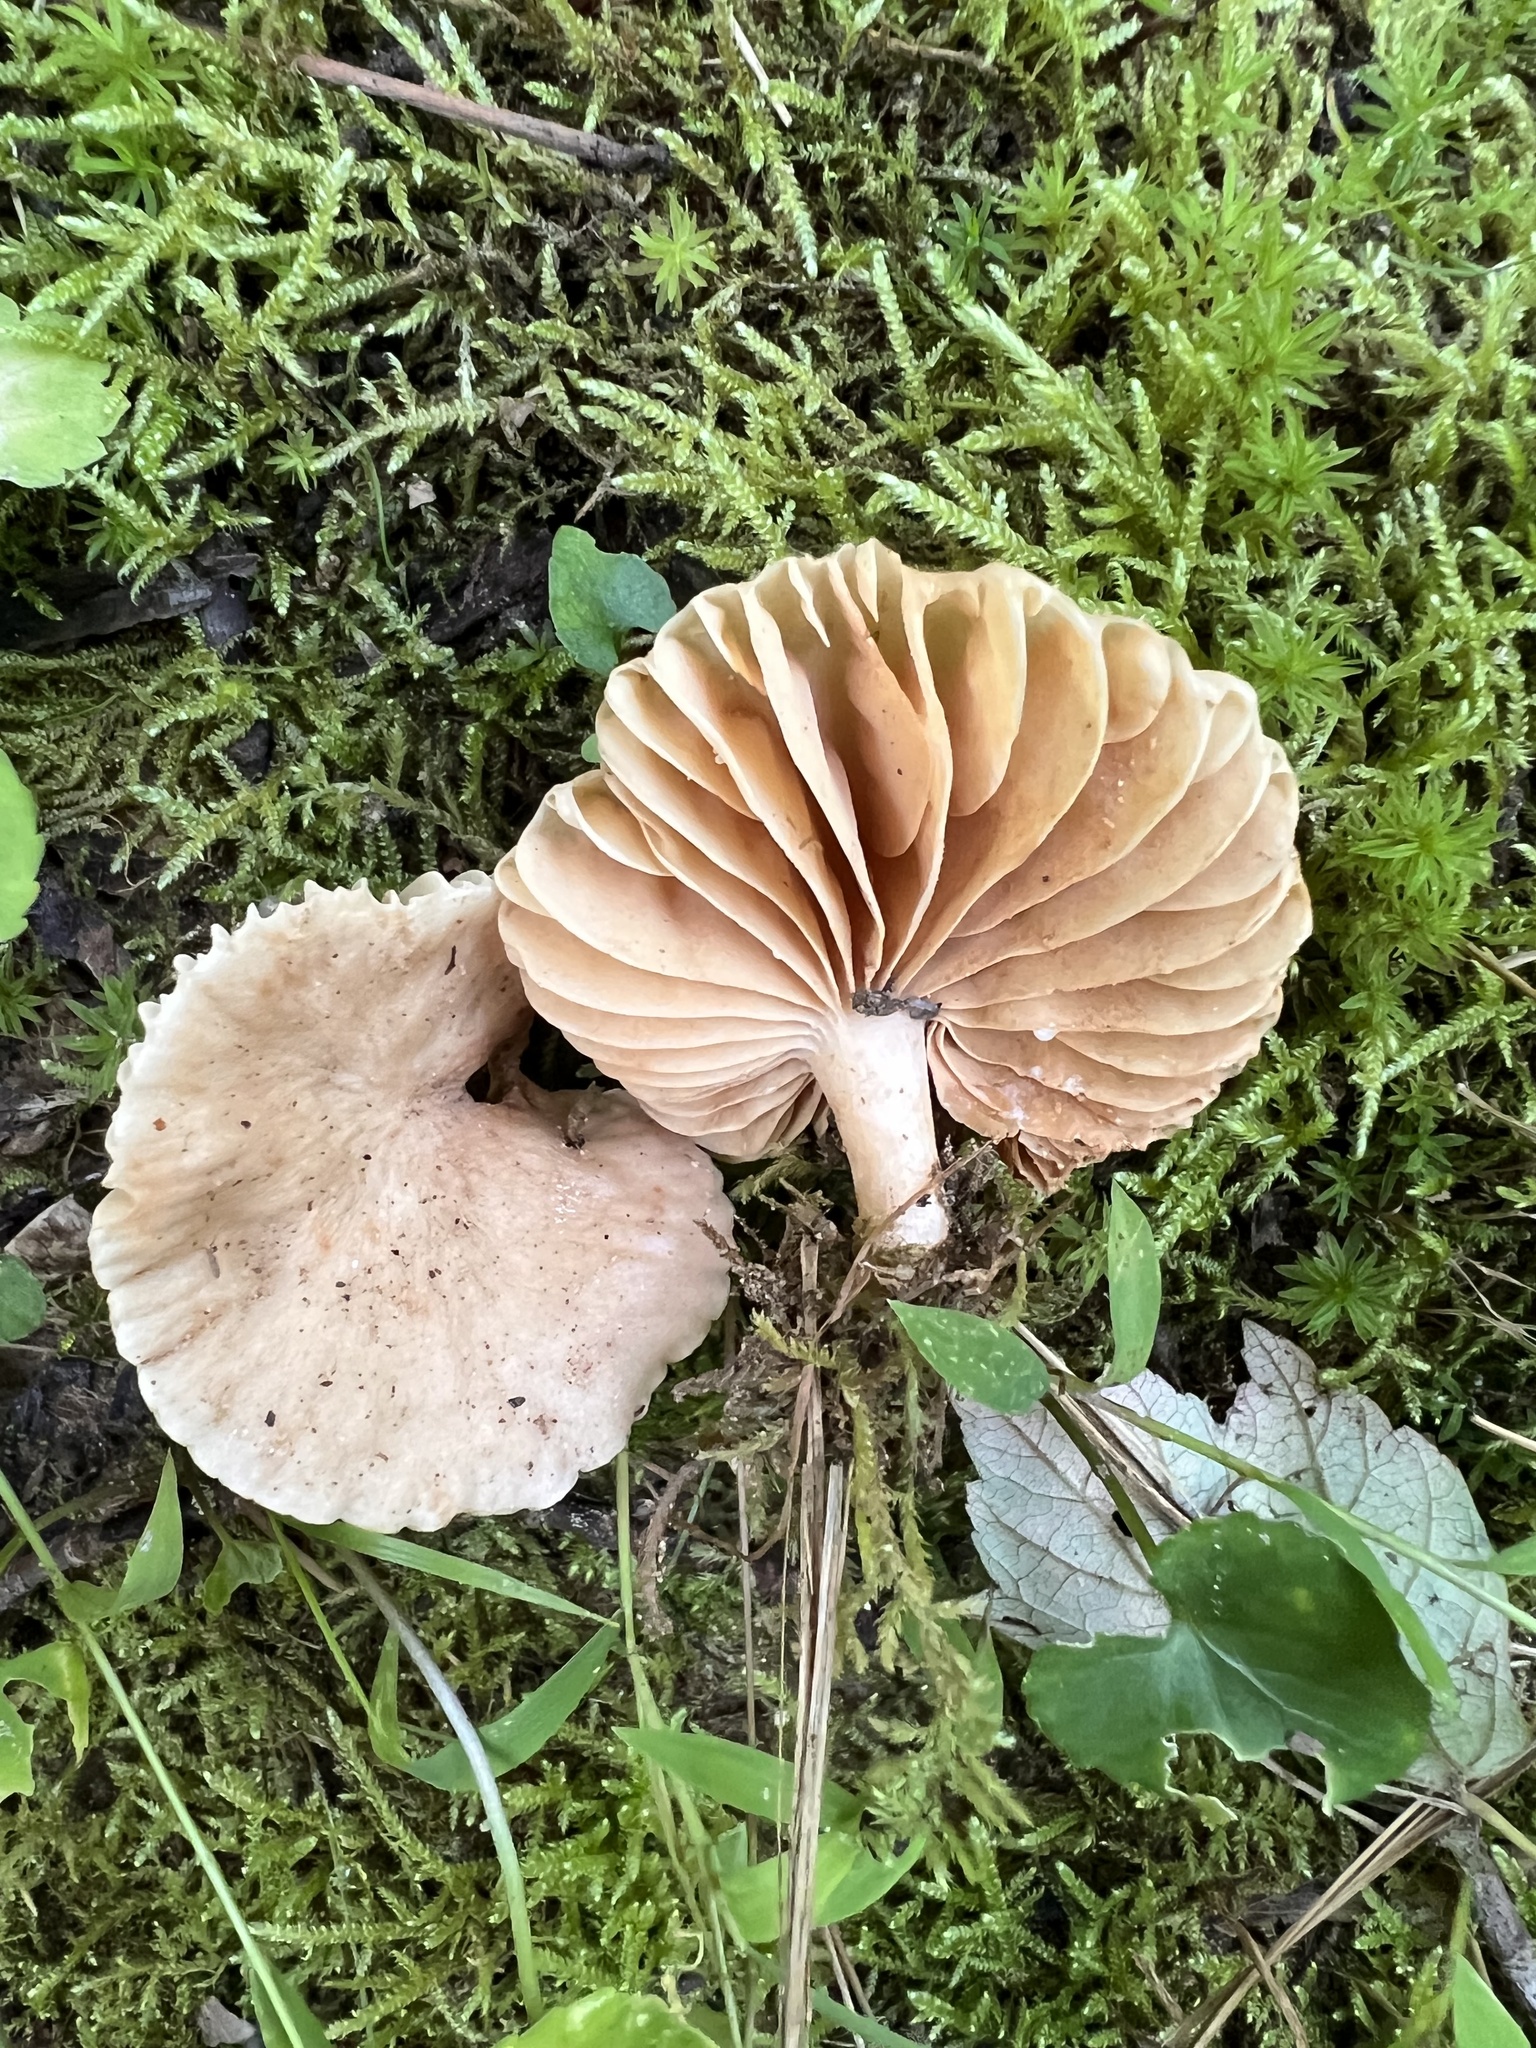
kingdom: Fungi
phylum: Basidiomycota
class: Agaricomycetes
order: Russulales
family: Russulaceae
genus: Lactarius
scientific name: Lactarius subplinthogalus
